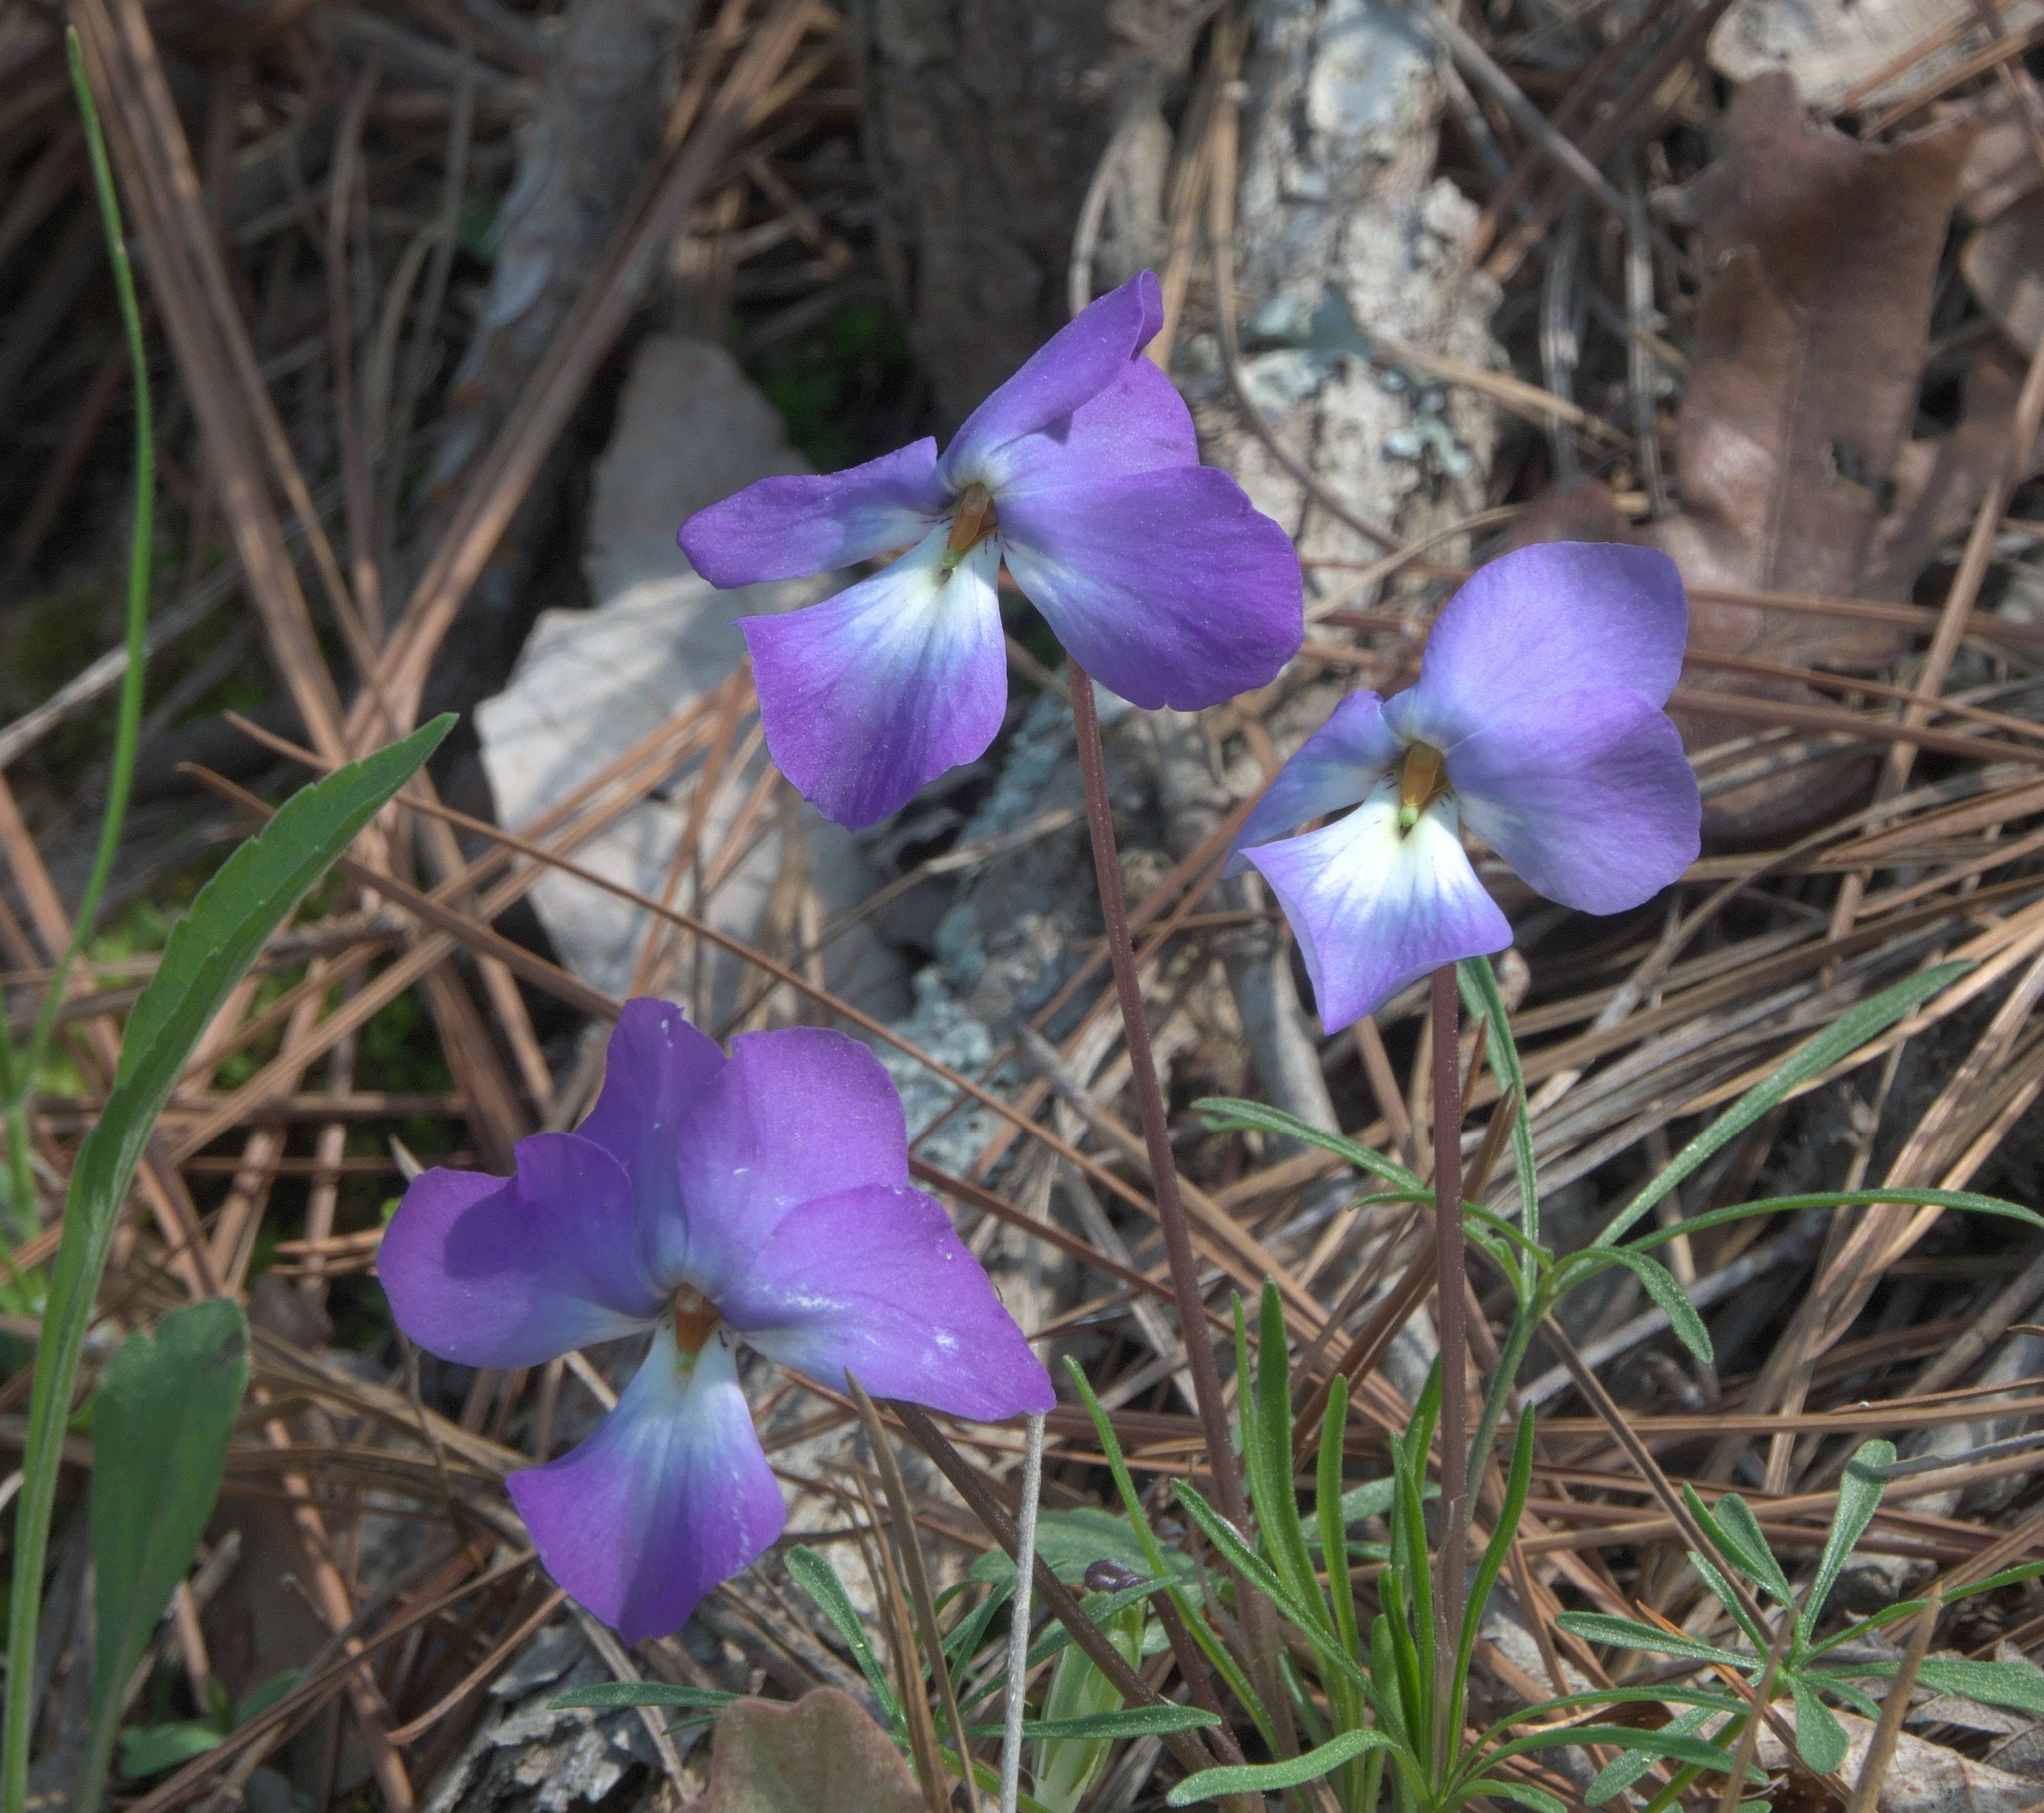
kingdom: Plantae
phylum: Tracheophyta
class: Magnoliopsida
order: Malpighiales
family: Violaceae
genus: Viola
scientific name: Viola pedata
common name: Pansy violet
